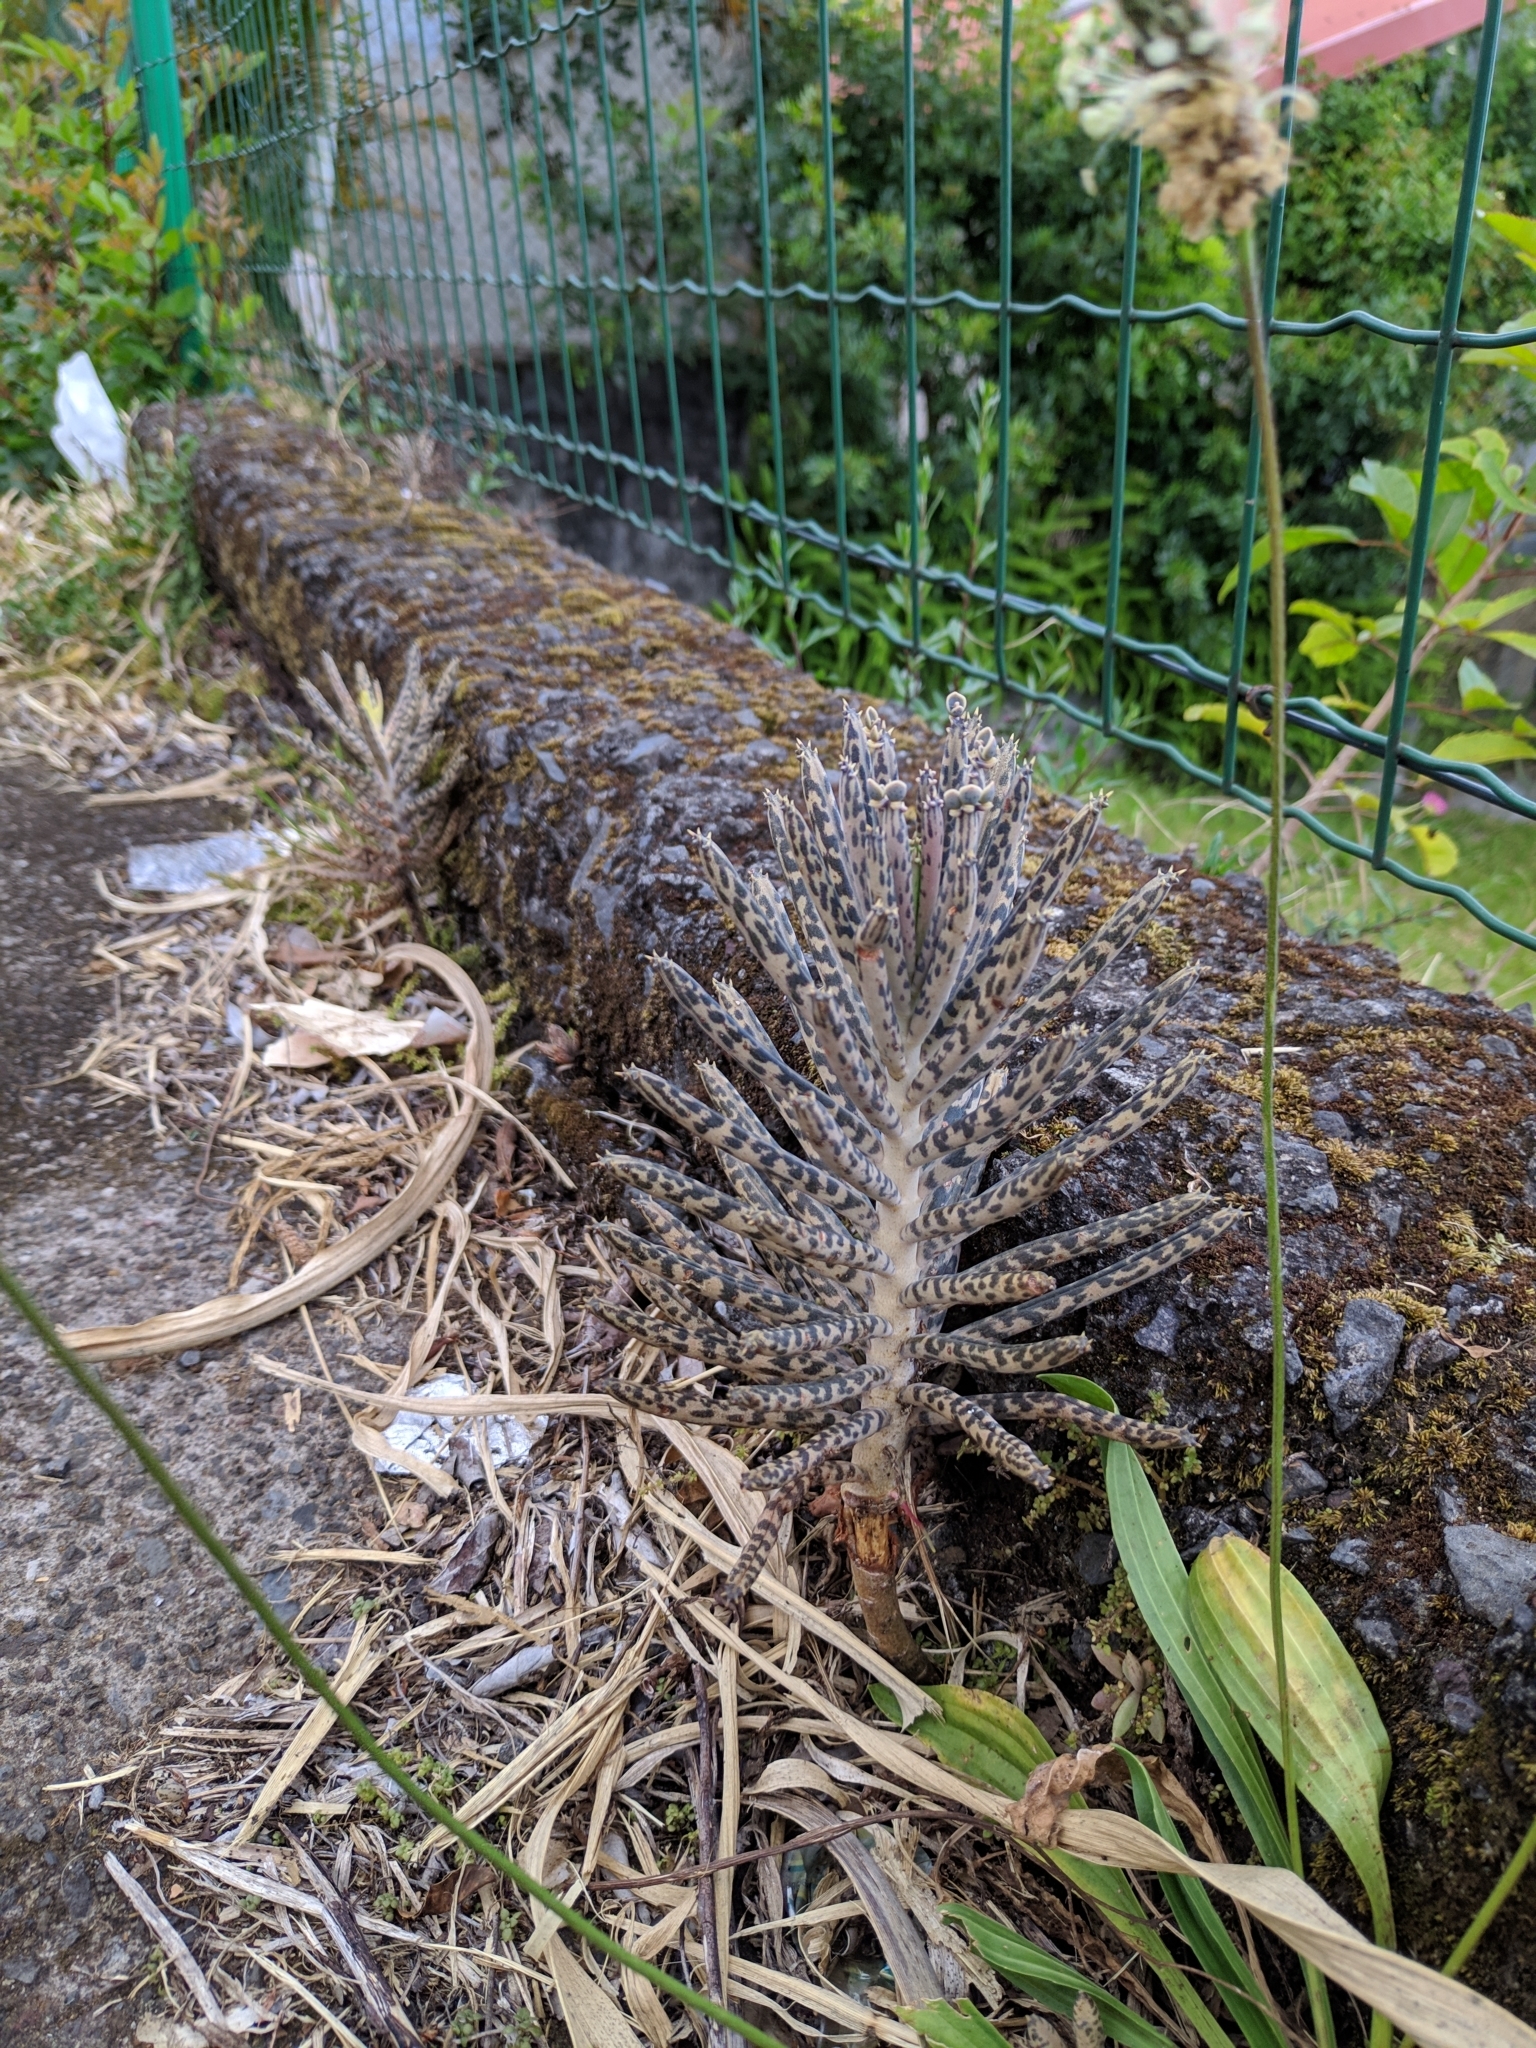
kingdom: Plantae
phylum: Tracheophyta
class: Magnoliopsida
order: Saxifragales
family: Crassulaceae
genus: Kalanchoe
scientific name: Kalanchoe delagoensis
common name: Chandelier plant
